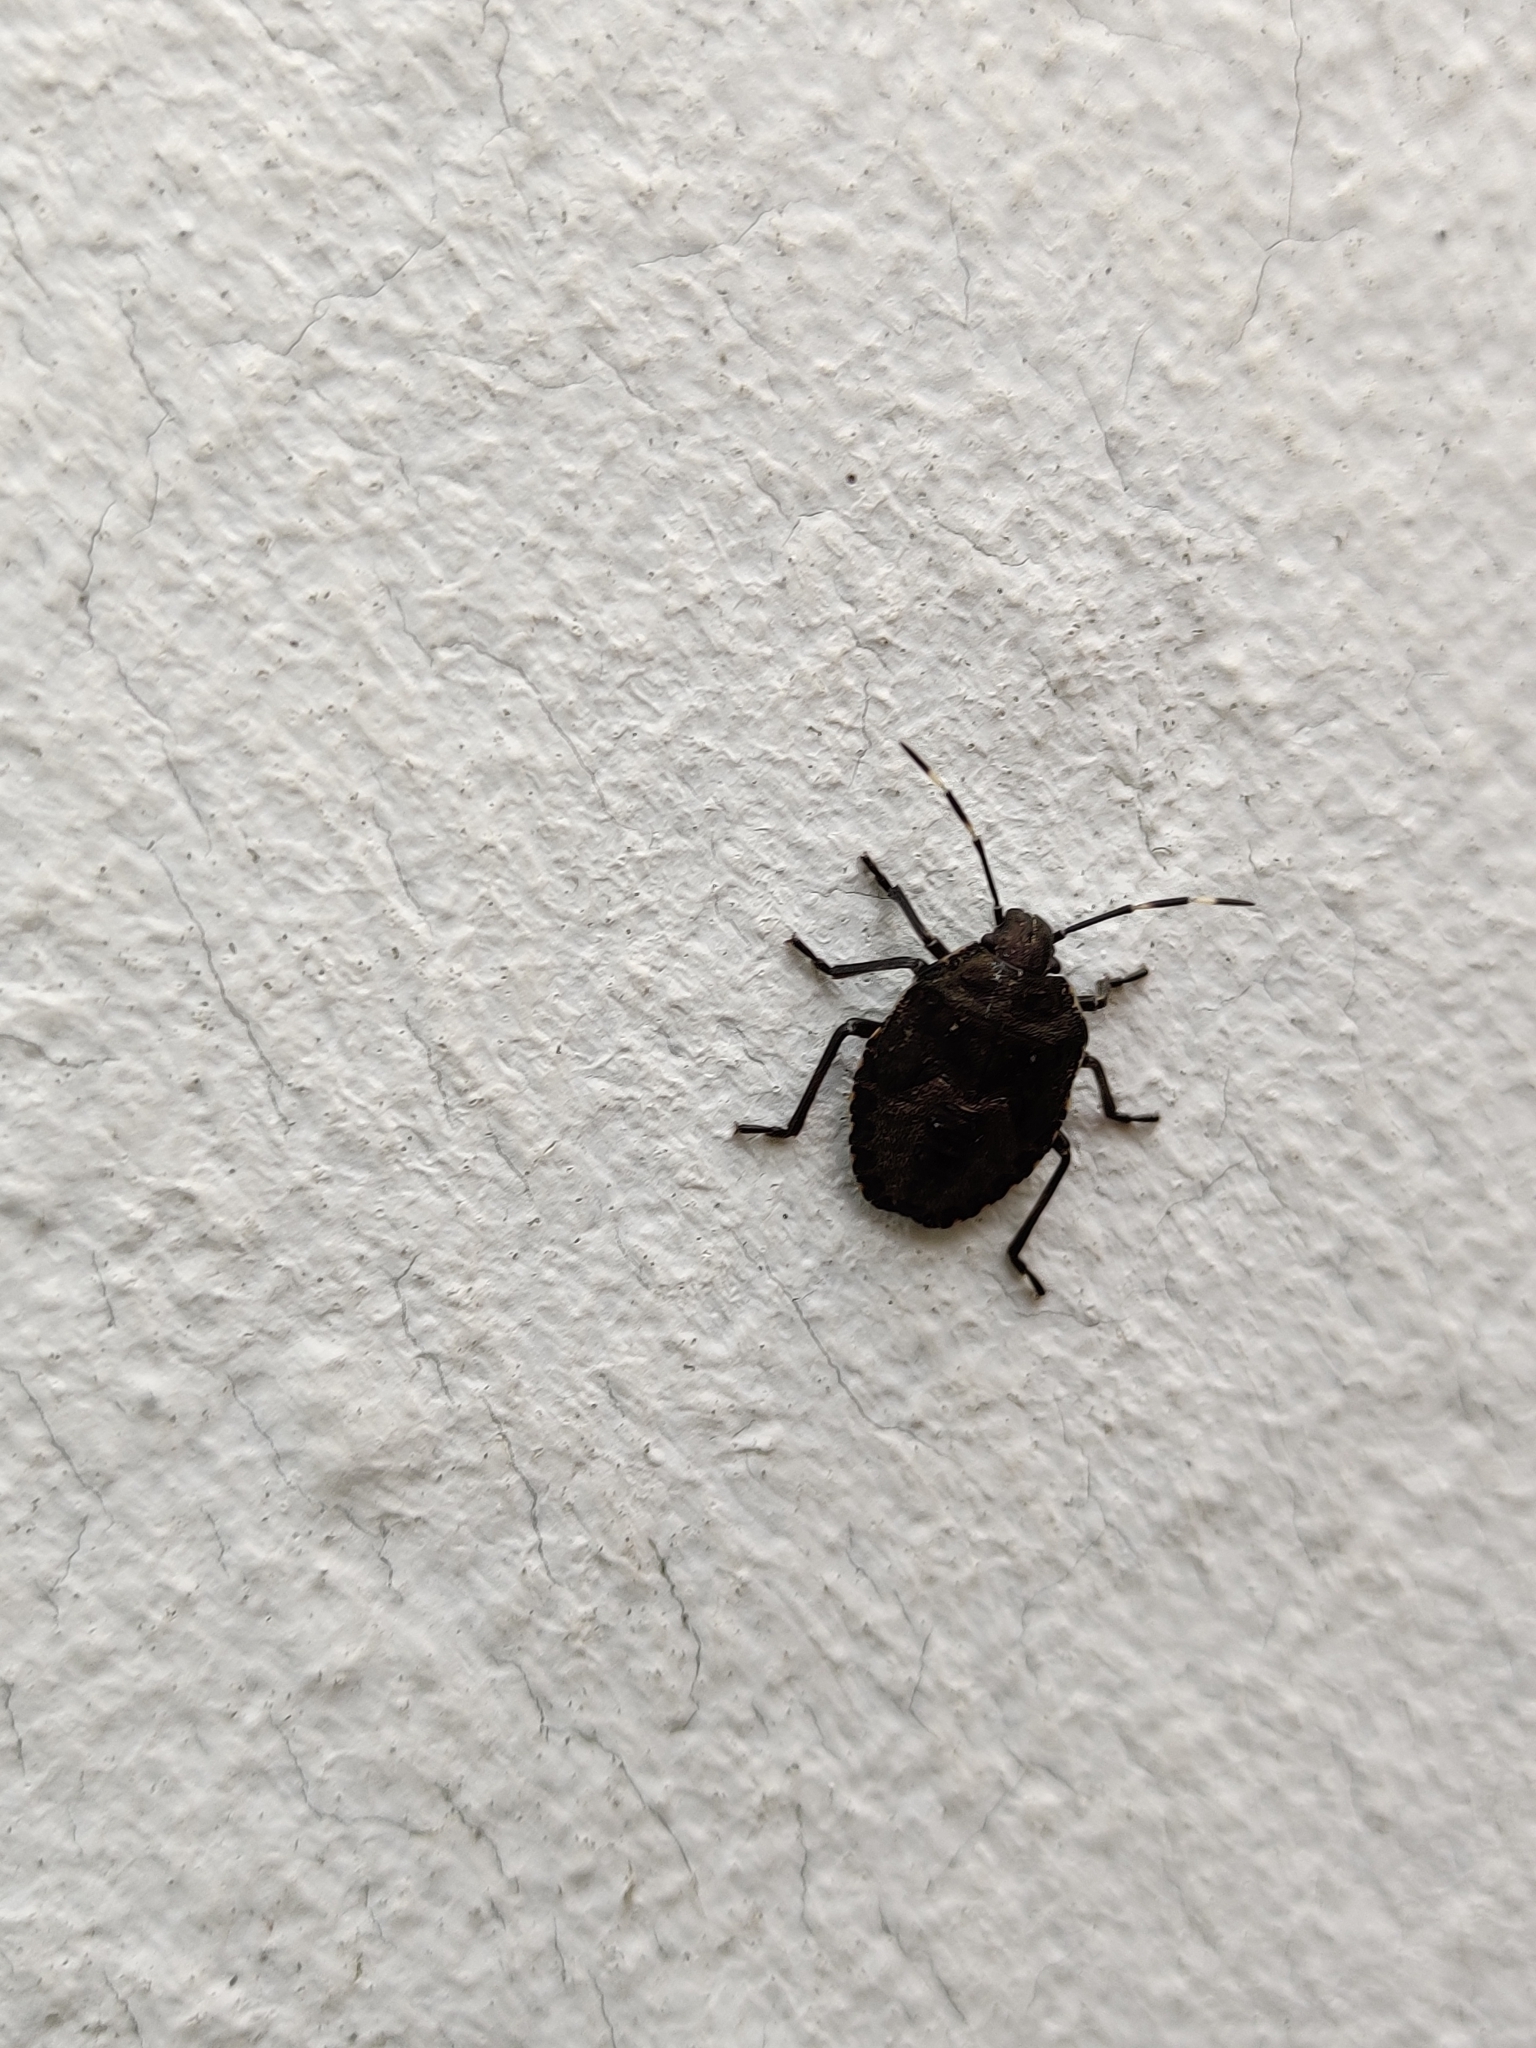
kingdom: Animalia
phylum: Arthropoda
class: Insecta
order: Hemiptera
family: Pentatomidae
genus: Rhaphigaster
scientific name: Rhaphigaster nebulosa
